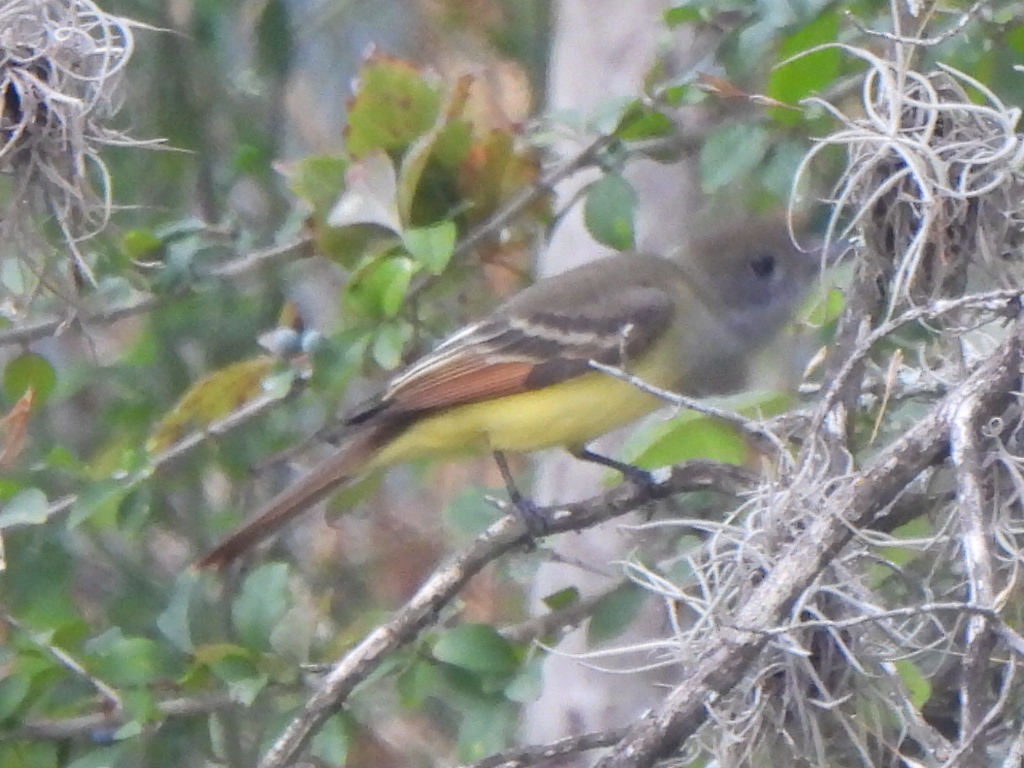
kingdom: Animalia
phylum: Chordata
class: Aves
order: Passeriformes
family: Tyrannidae
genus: Myiarchus
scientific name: Myiarchus crinitus
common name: Great crested flycatcher
